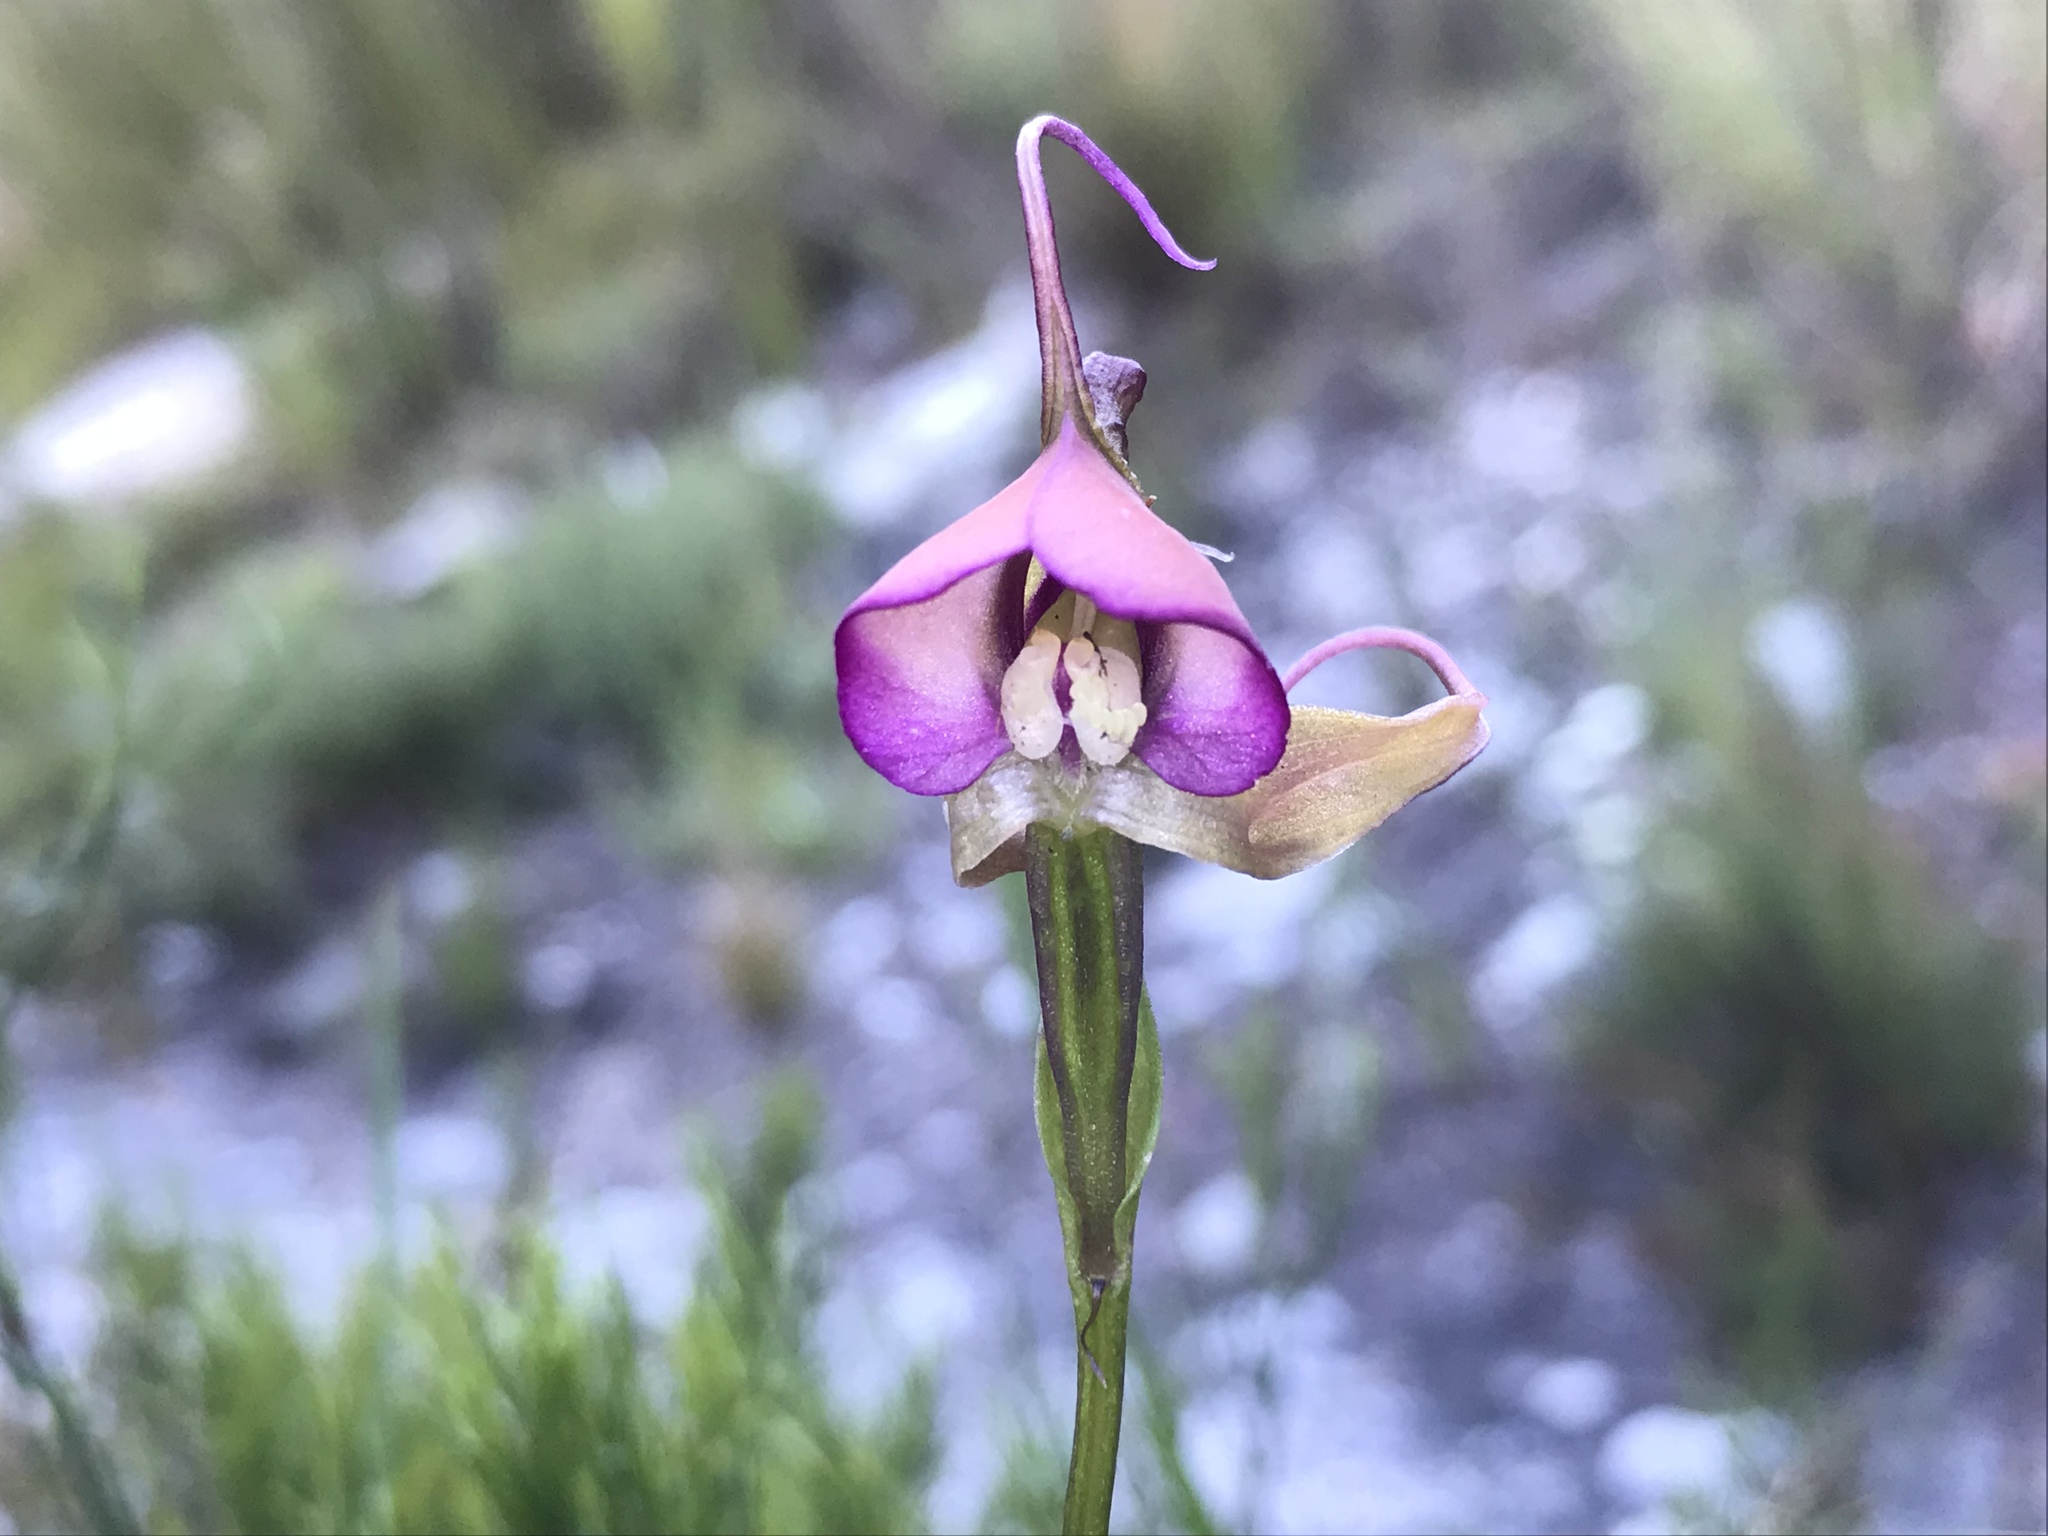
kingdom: Plantae
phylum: Tracheophyta
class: Liliopsida
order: Asparagales
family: Orchidaceae
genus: Disperis
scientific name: Disperis capensis
